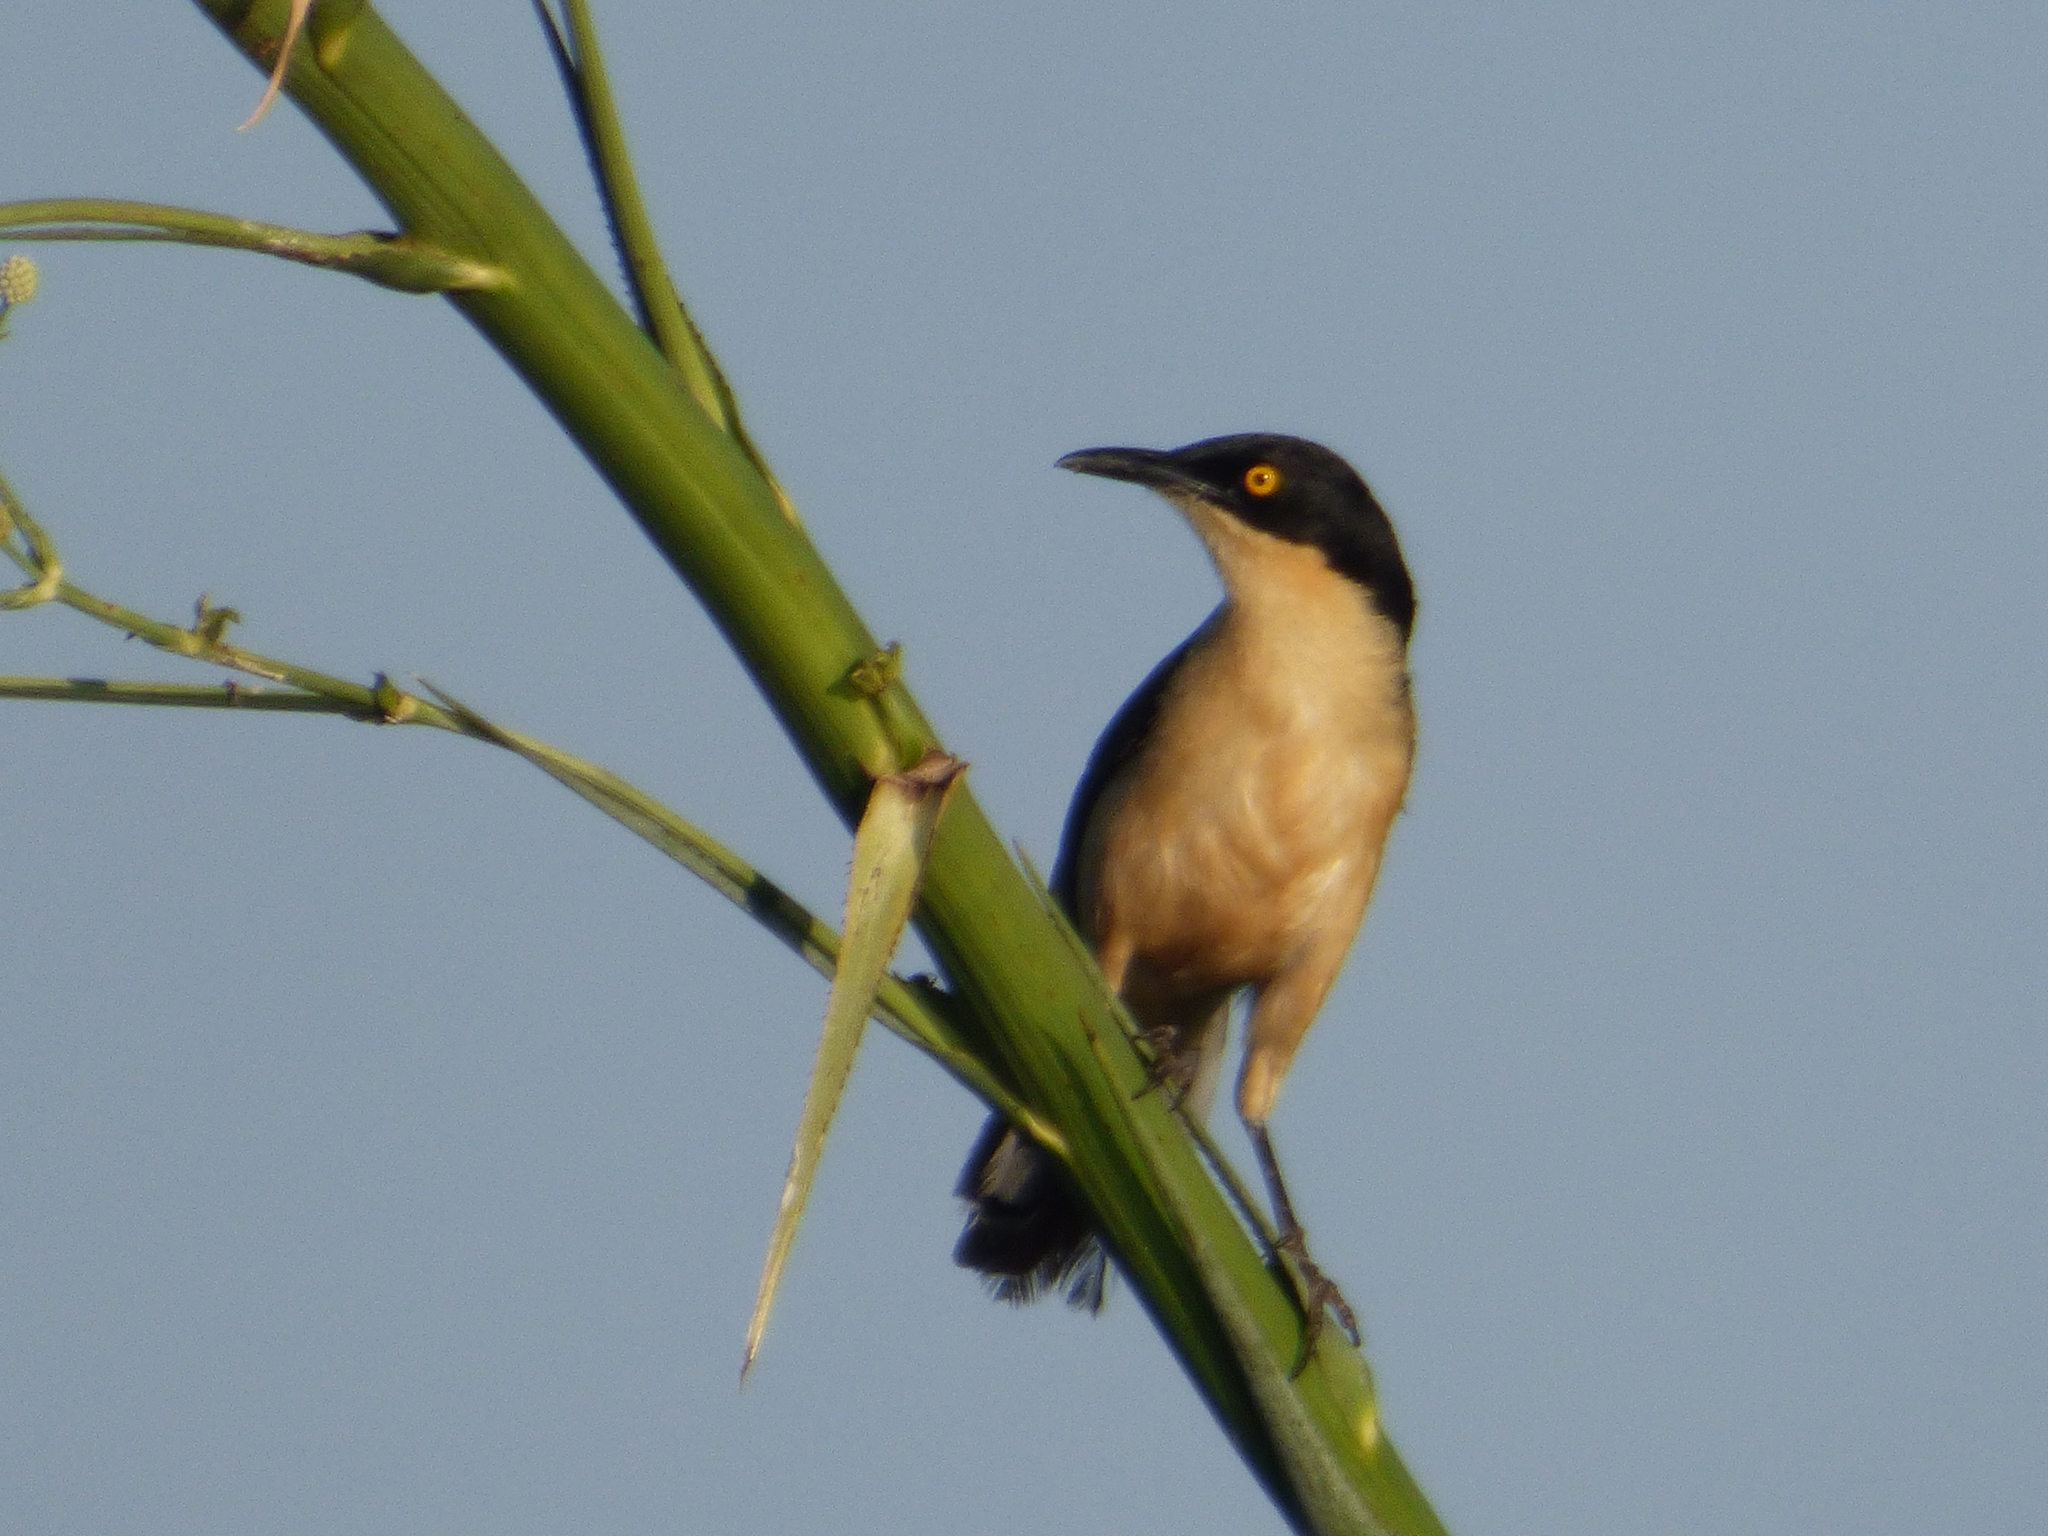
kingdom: Animalia
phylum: Chordata
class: Aves
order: Passeriformes
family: Donacobiidae
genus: Donacobius
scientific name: Donacobius atricapilla
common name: Black-capped donacobius
